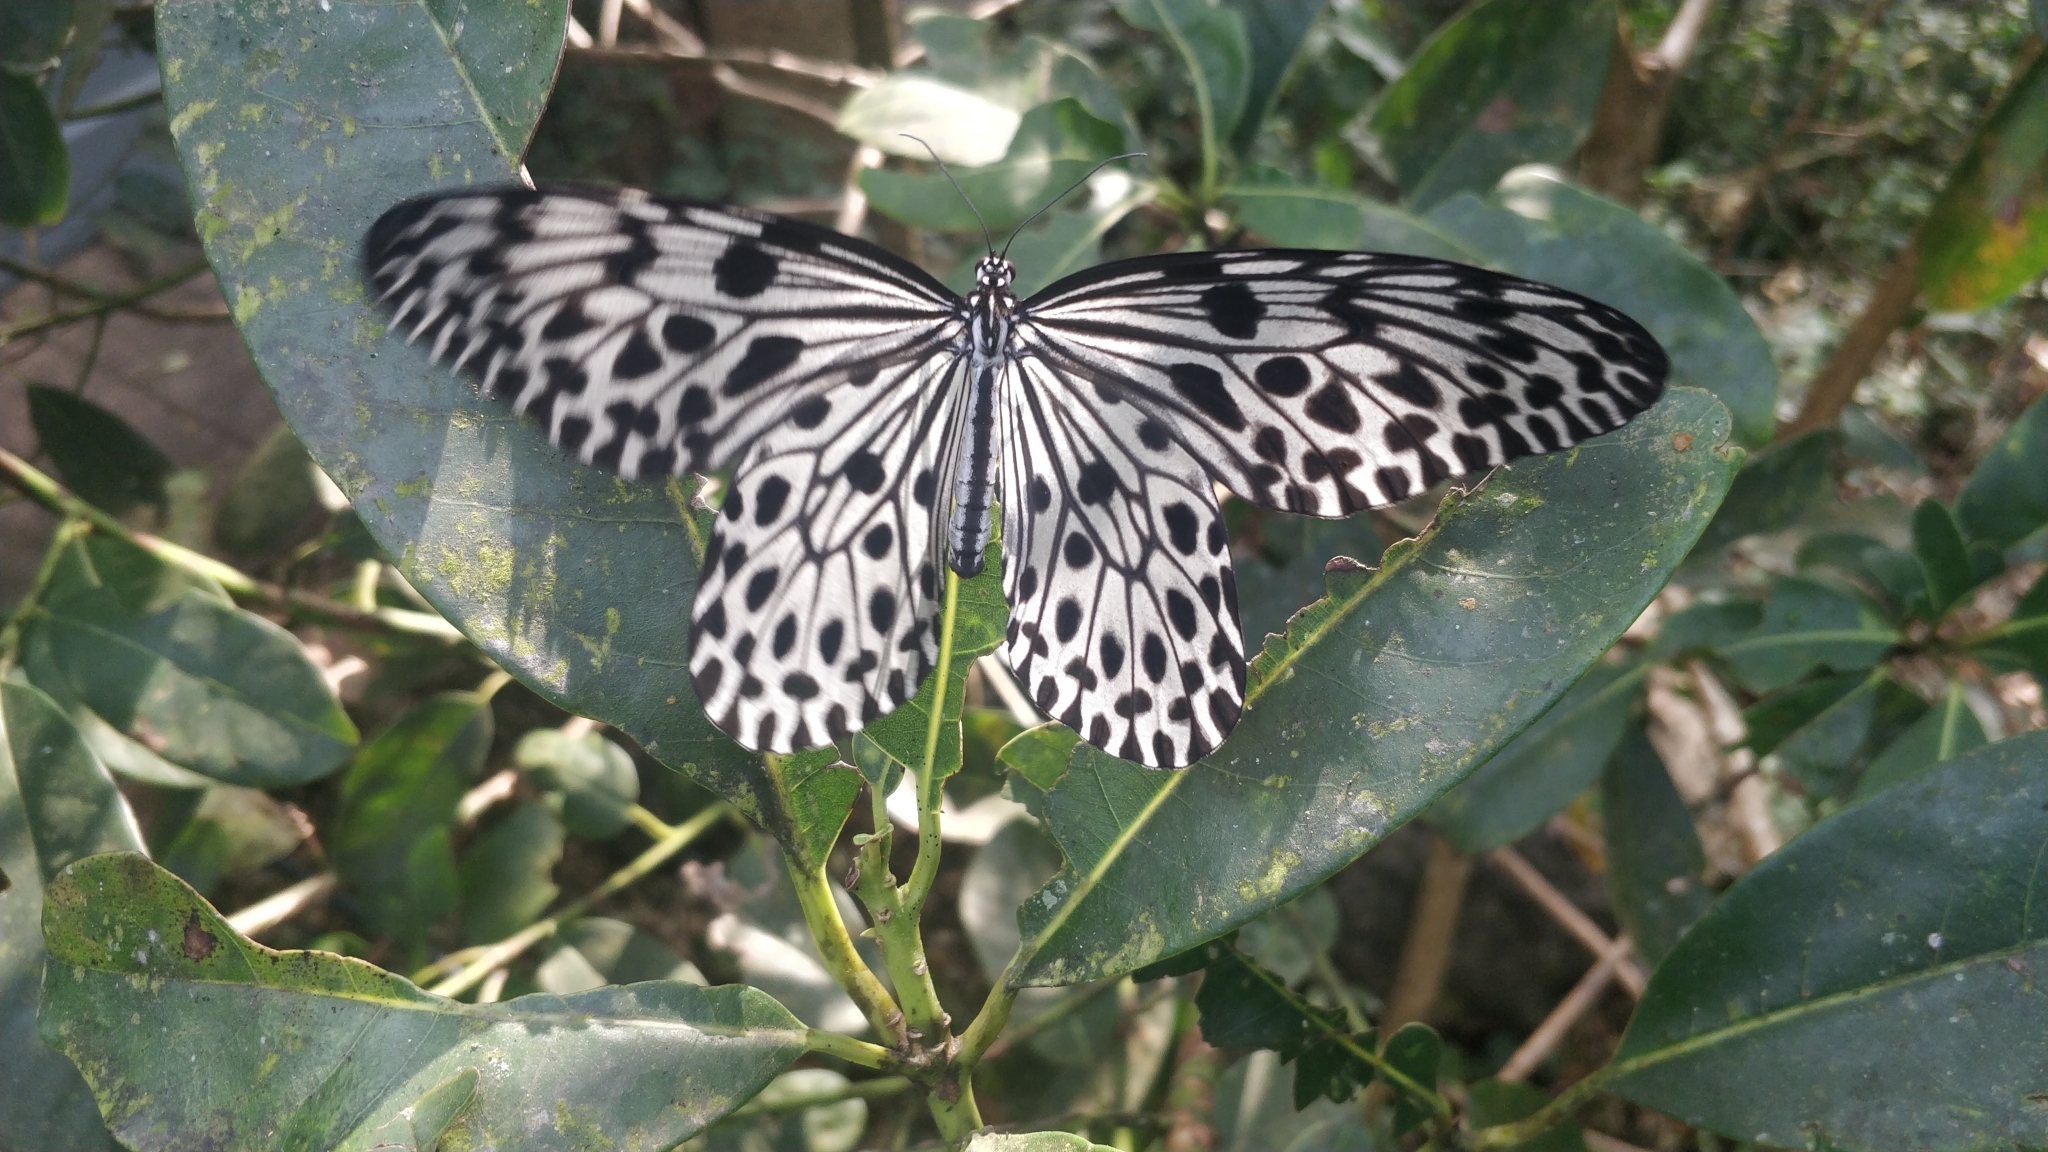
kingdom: Animalia
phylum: Arthropoda
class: Insecta
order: Lepidoptera
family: Nymphalidae
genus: Idea
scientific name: Idea malabarica
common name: Malabar tree-nymph
